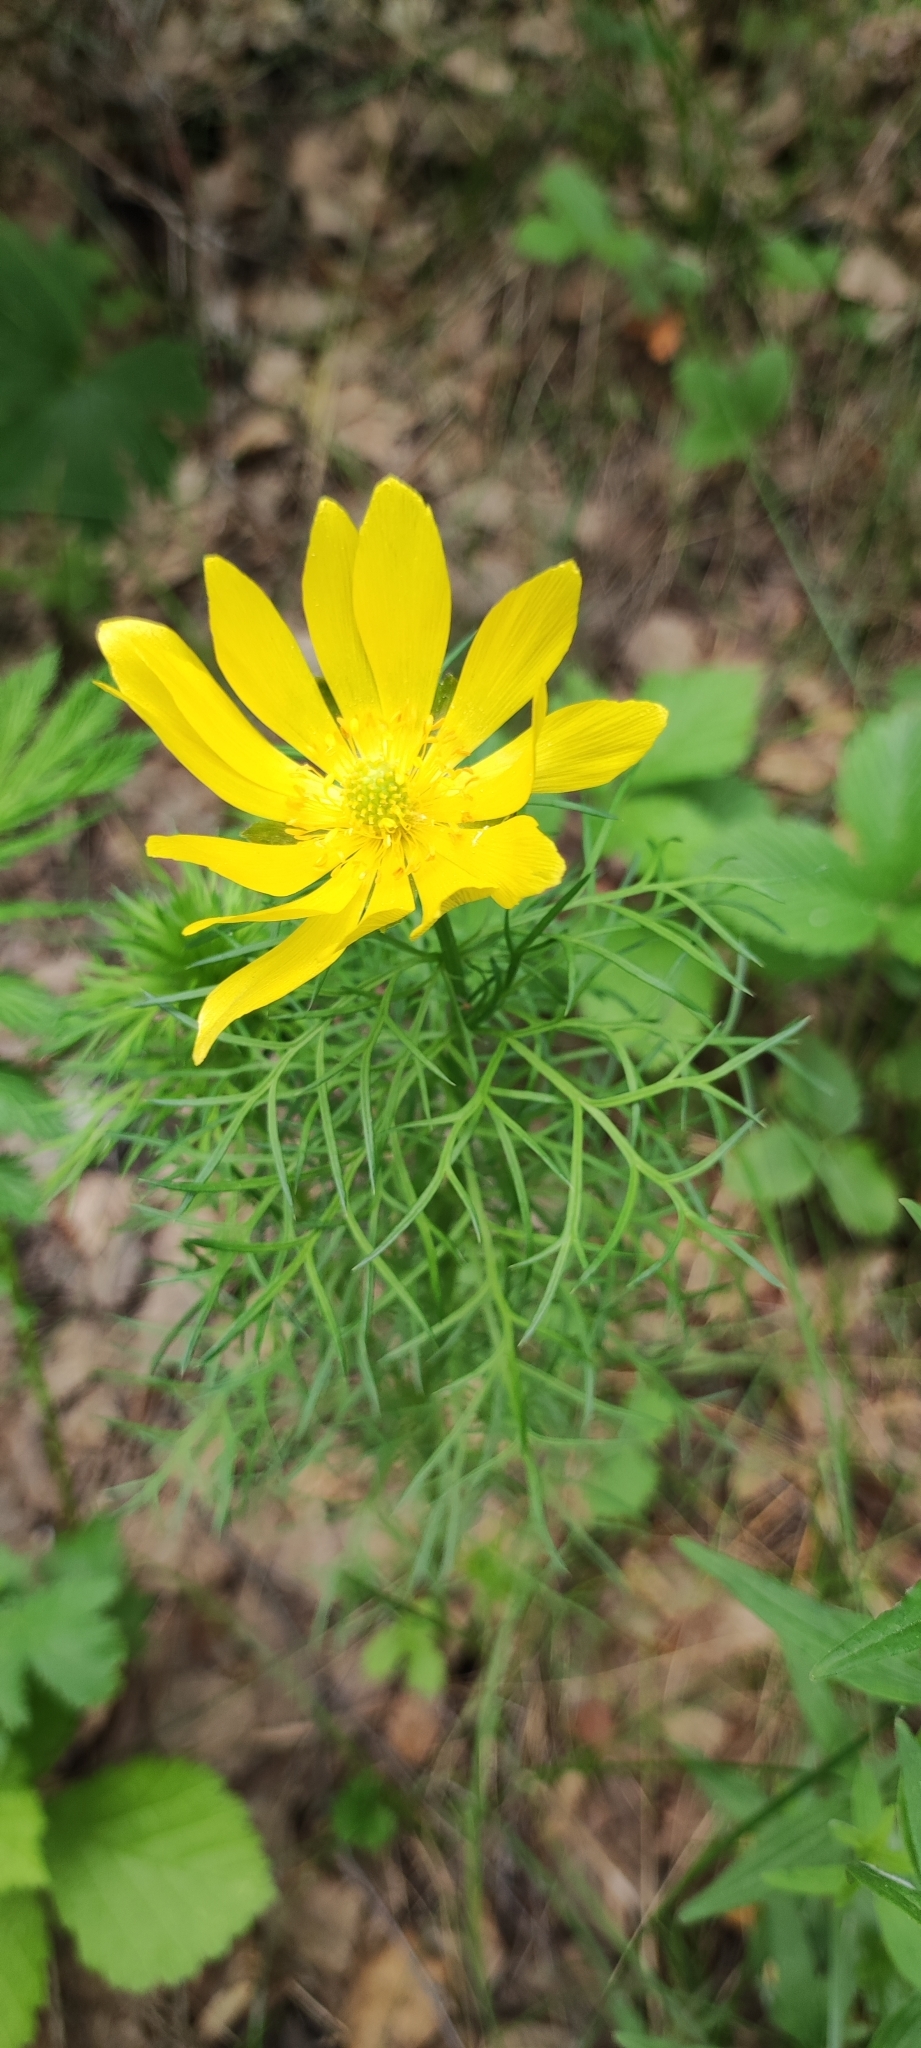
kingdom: Plantae
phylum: Tracheophyta
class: Magnoliopsida
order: Ranunculales
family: Ranunculaceae
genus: Adonis
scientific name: Adonis vernalis
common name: Yellow pheasants-eye
